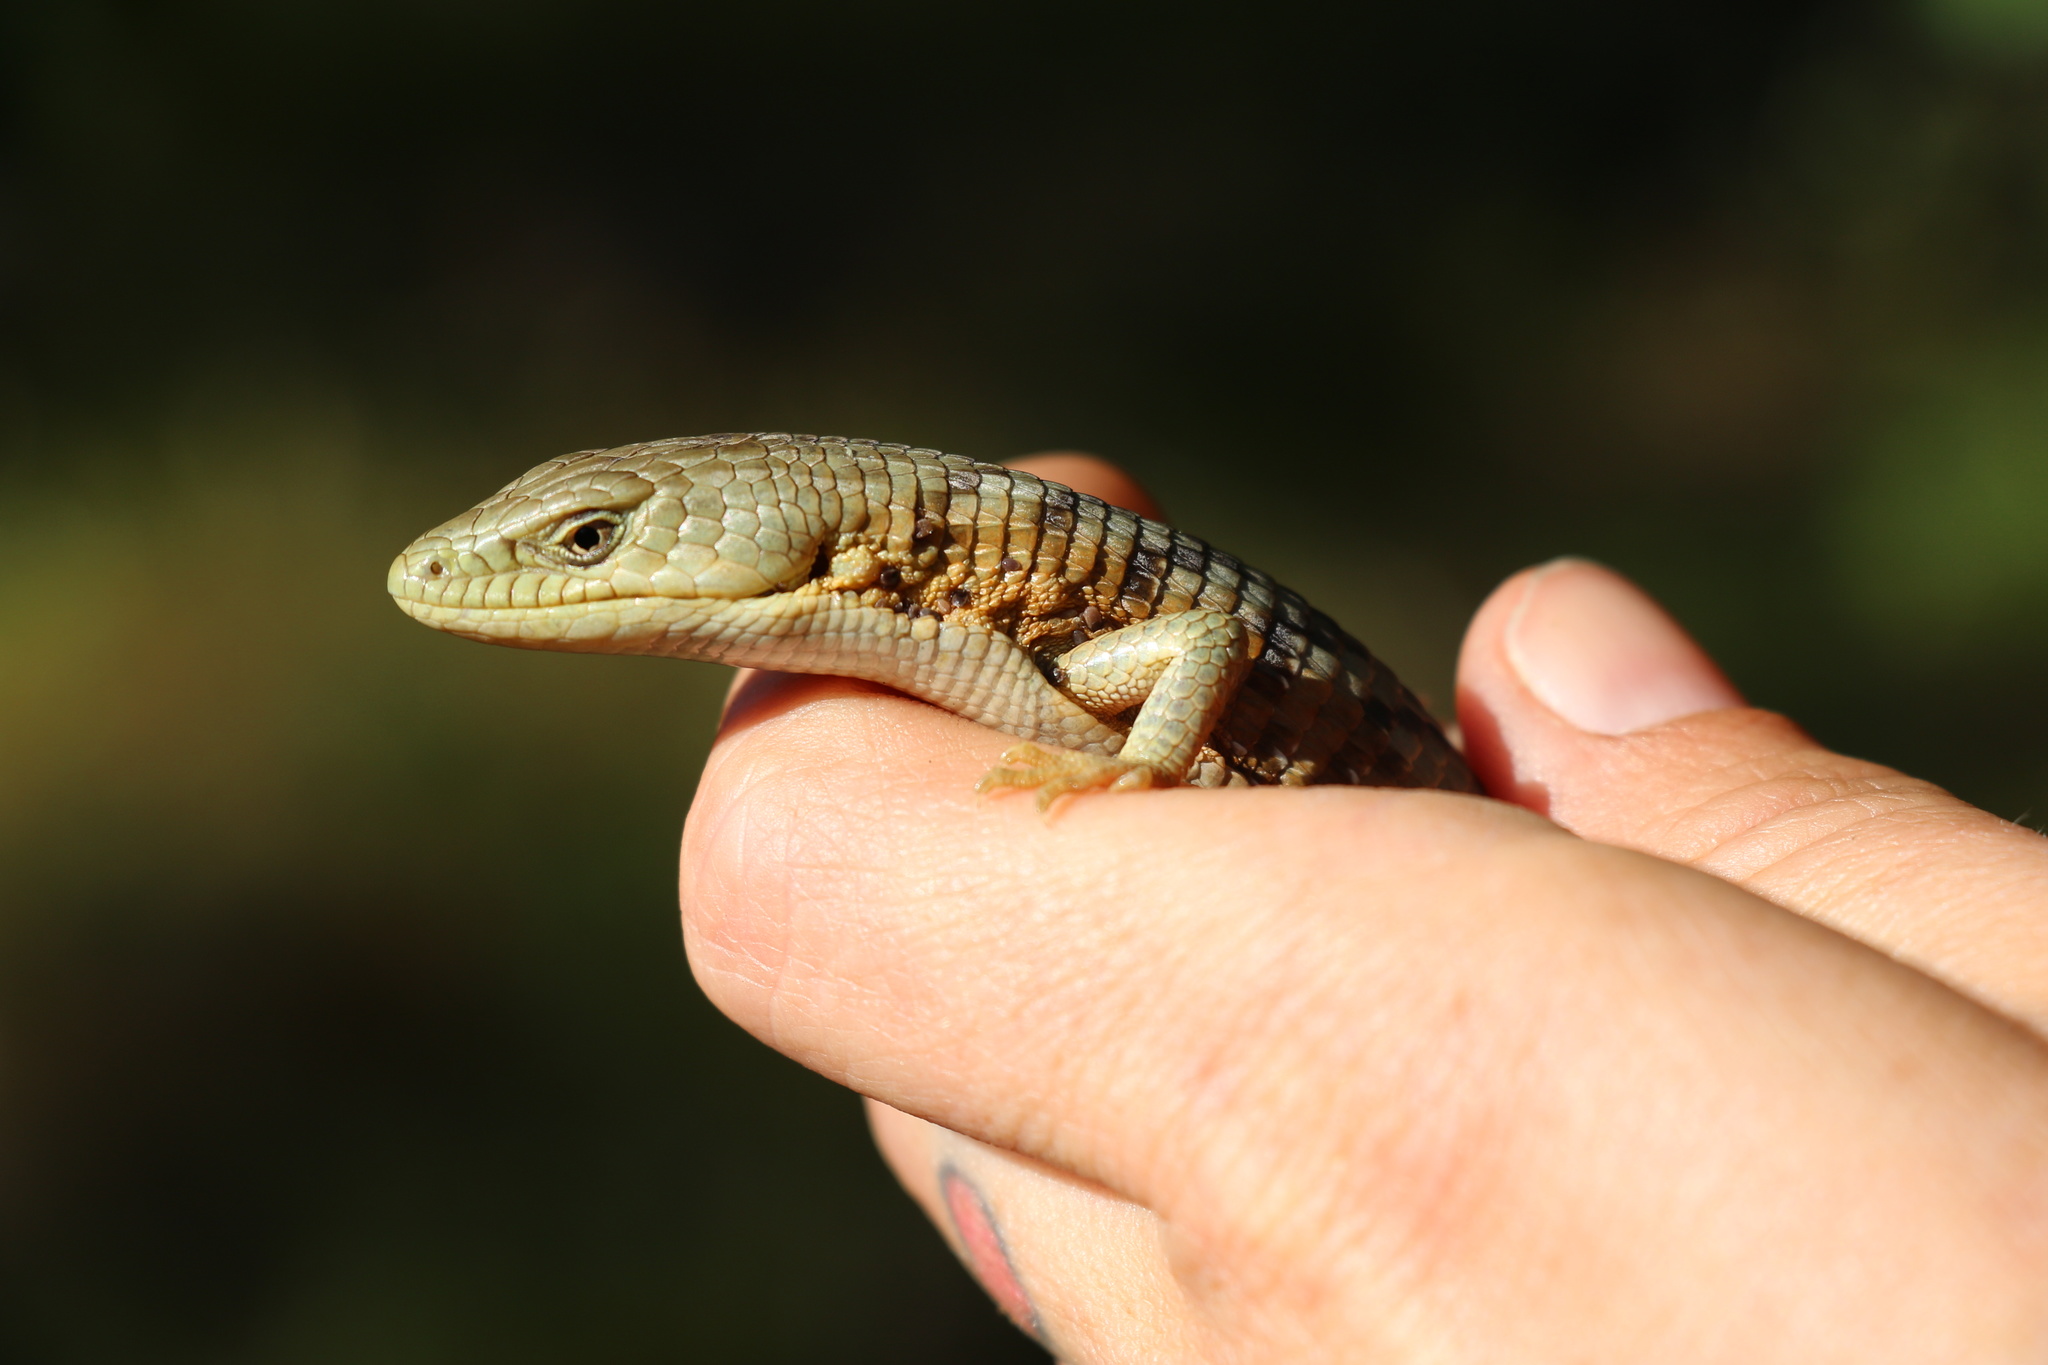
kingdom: Animalia
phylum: Chordata
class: Squamata
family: Anguidae
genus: Elgaria
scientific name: Elgaria multicarinata
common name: Southern alligator lizard
